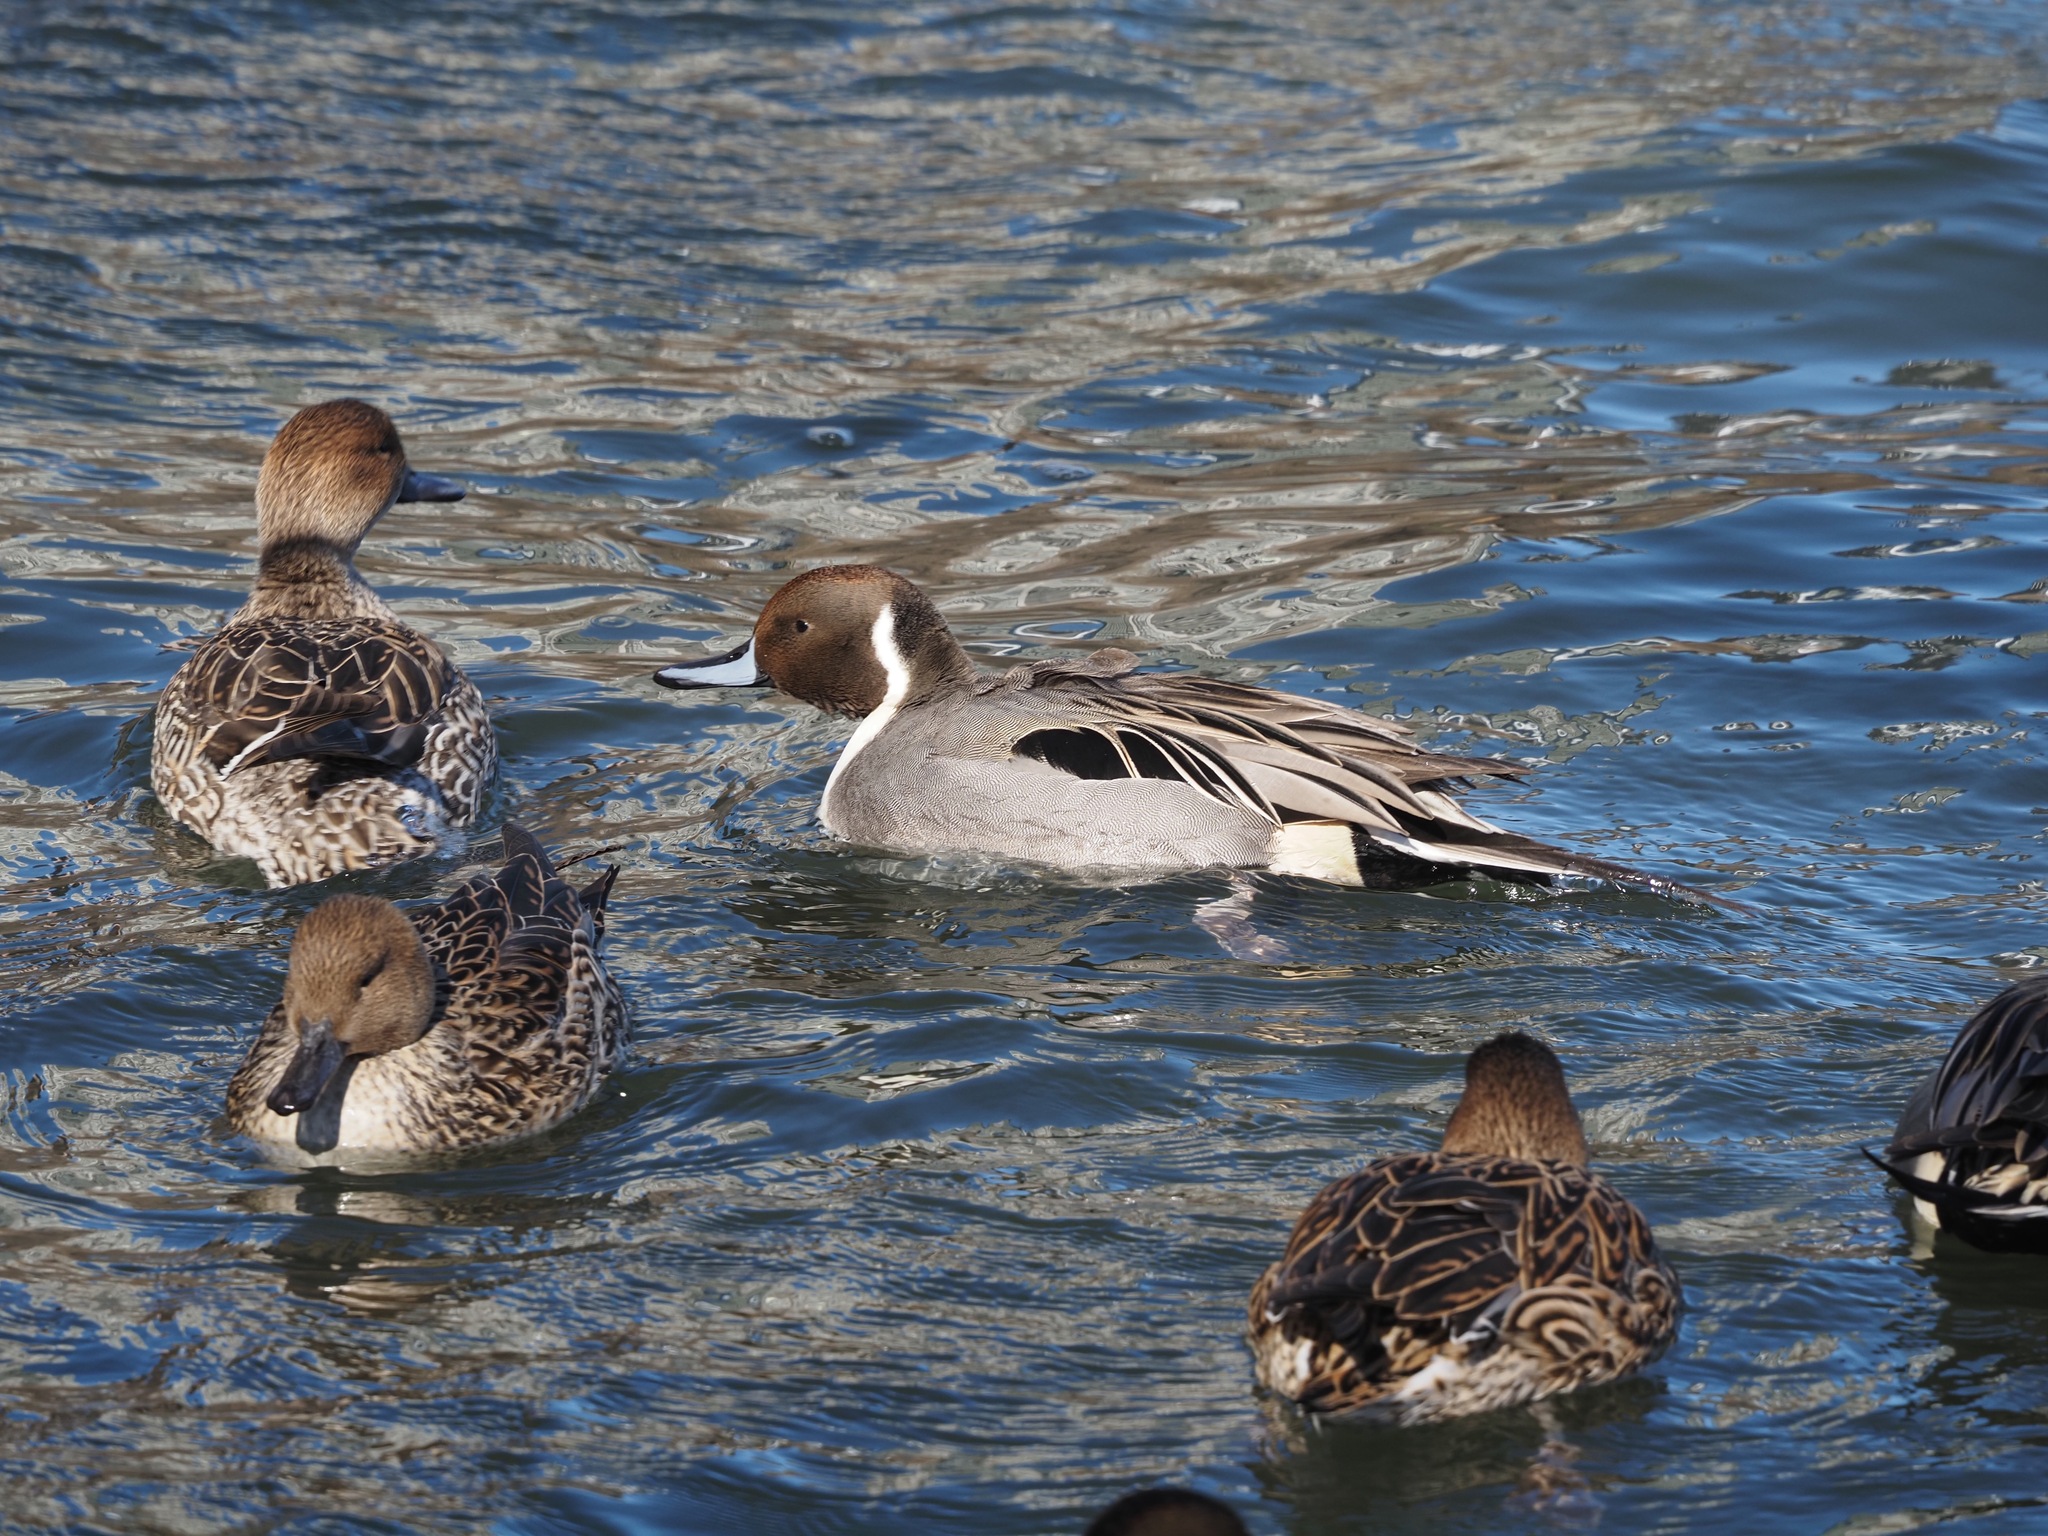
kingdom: Animalia
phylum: Chordata
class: Aves
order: Anseriformes
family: Anatidae
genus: Anas
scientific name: Anas acuta
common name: Northern pintail
